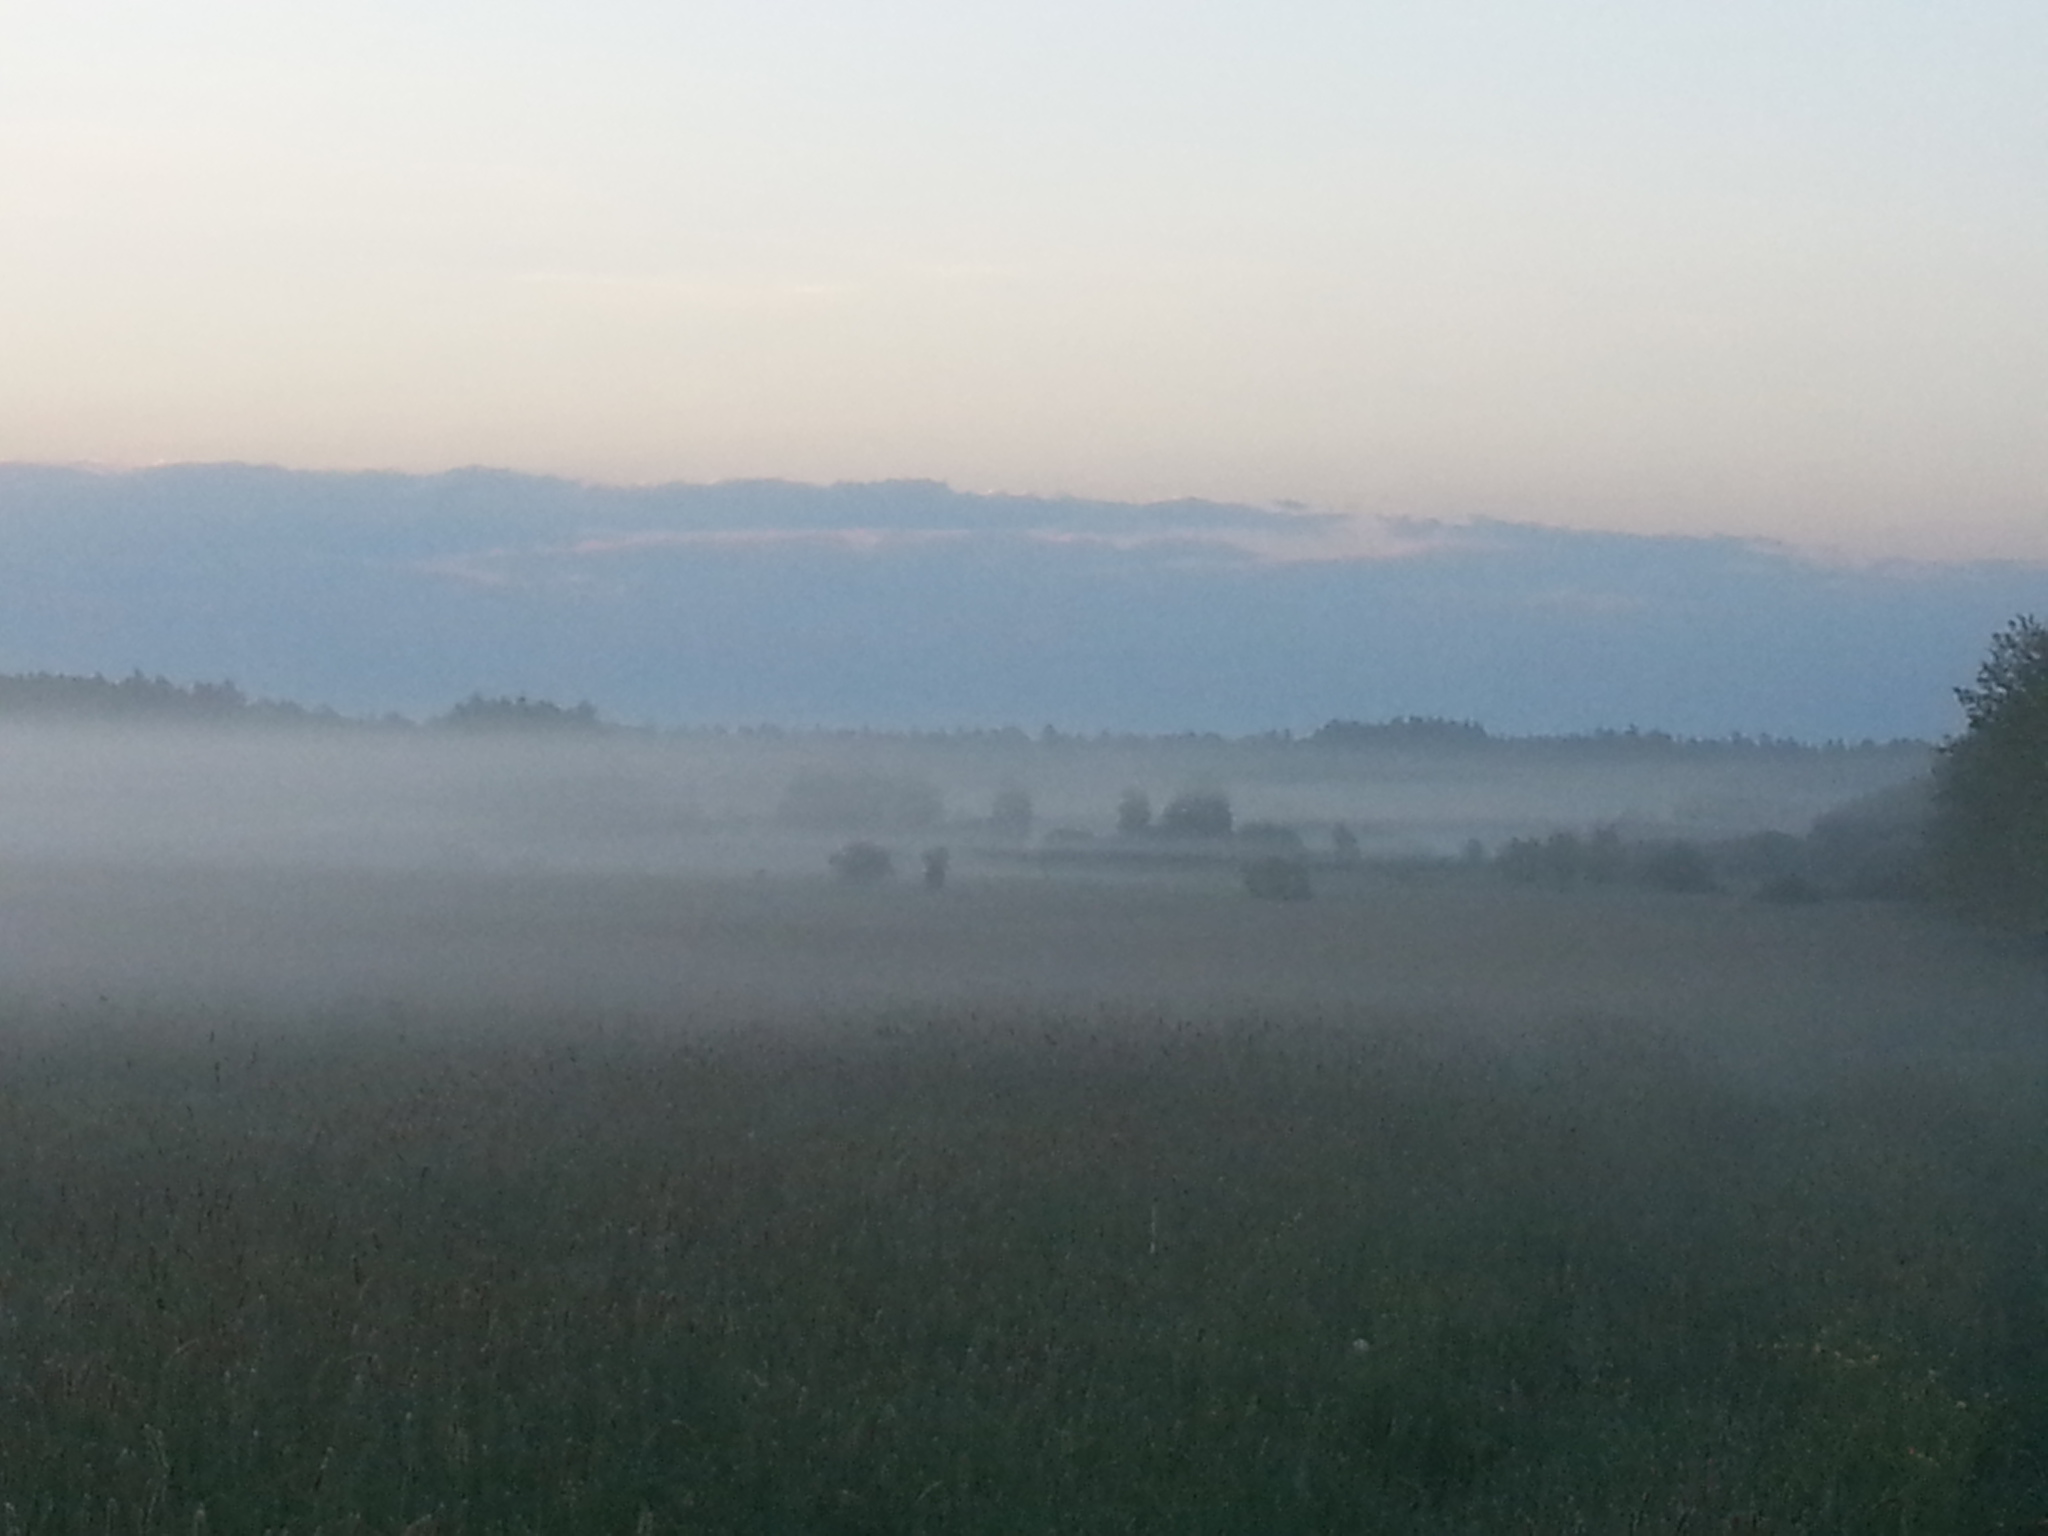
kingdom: Animalia
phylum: Chordata
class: Mammalia
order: Artiodactyla
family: Bovidae
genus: Bison
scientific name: Bison bonasus
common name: European bison
